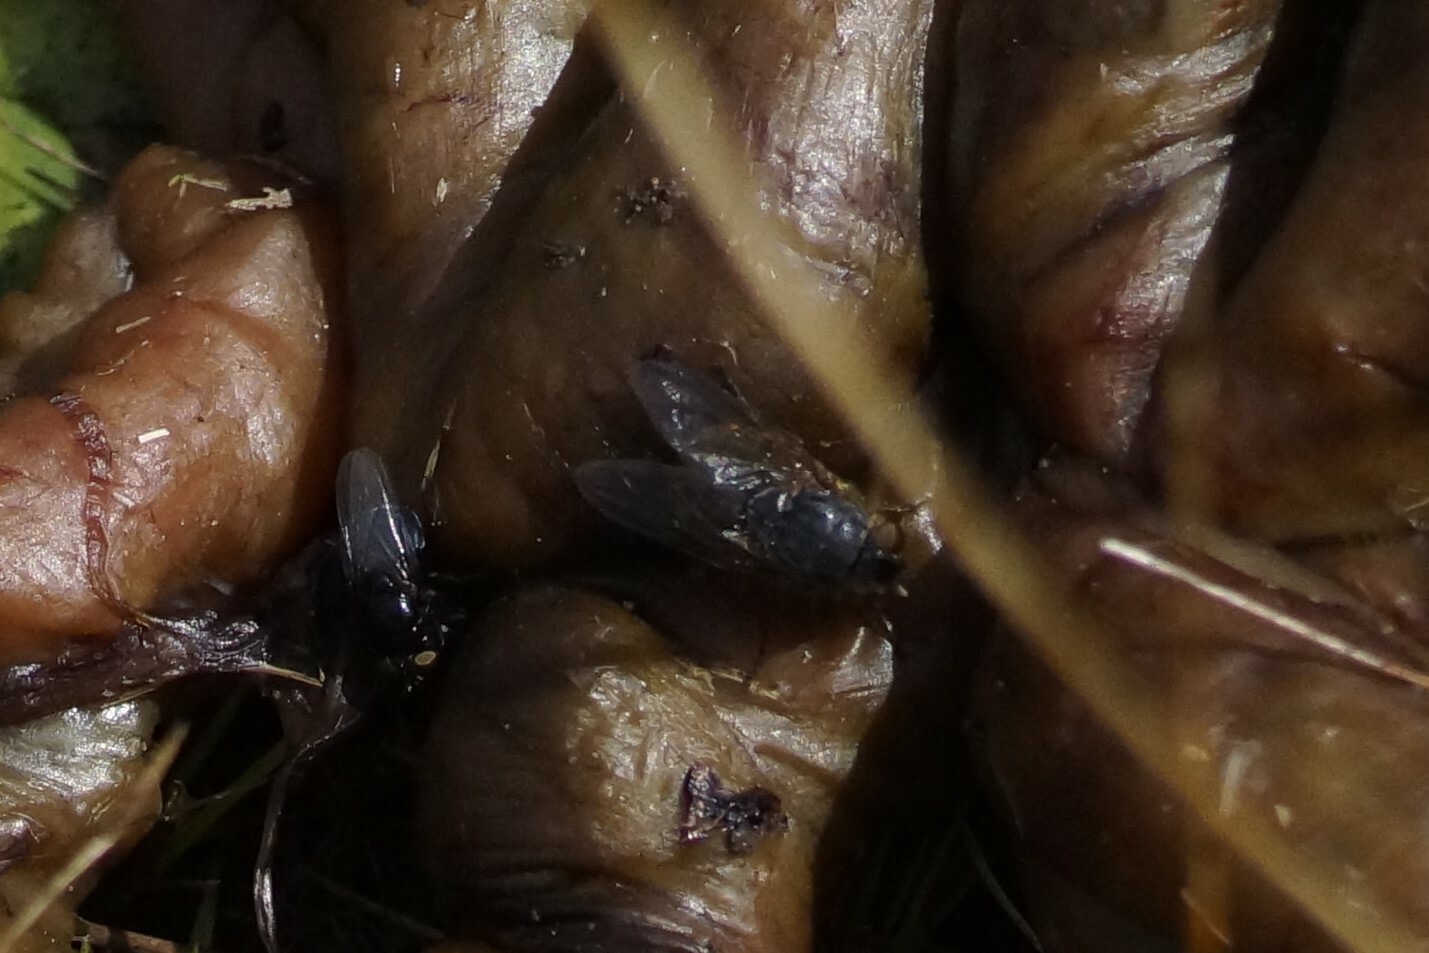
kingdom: Animalia
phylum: Arthropoda
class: Insecta
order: Diptera
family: Calliphoridae
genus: Calliphora
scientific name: Calliphora stygia
